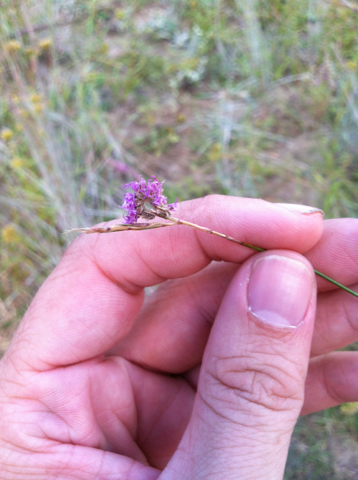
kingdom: Animalia
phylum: Arthropoda
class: Insecta
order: Lepidoptera
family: Geometridae
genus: Synchlora
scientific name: Synchlora
